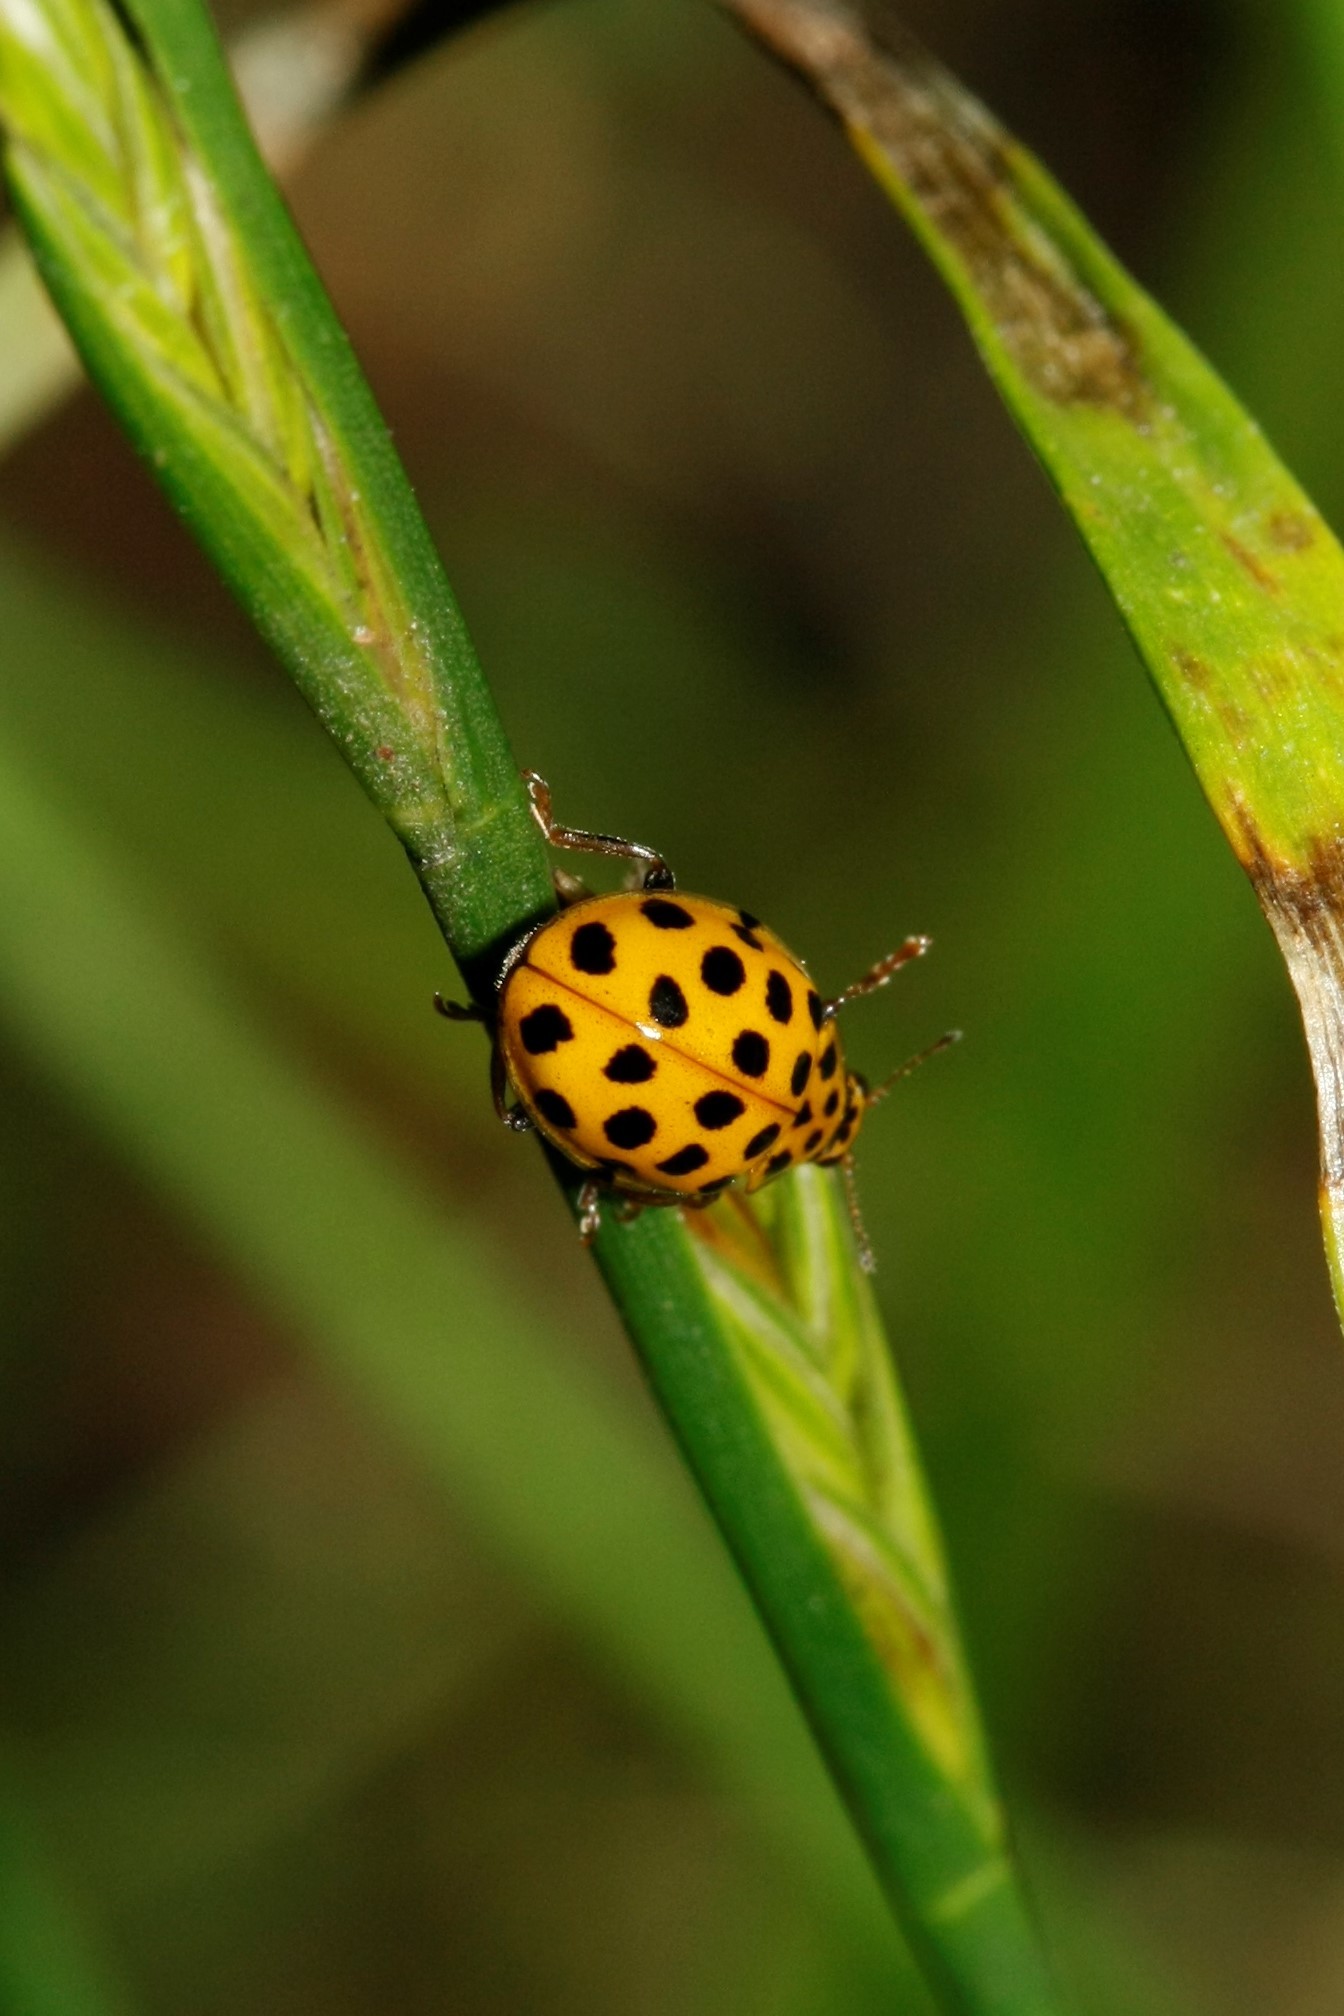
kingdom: Animalia
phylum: Arthropoda
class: Insecta
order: Coleoptera
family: Coccinellidae
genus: Psyllobora
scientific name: Psyllobora vigintiduopunctata
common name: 22-spot ladybird
